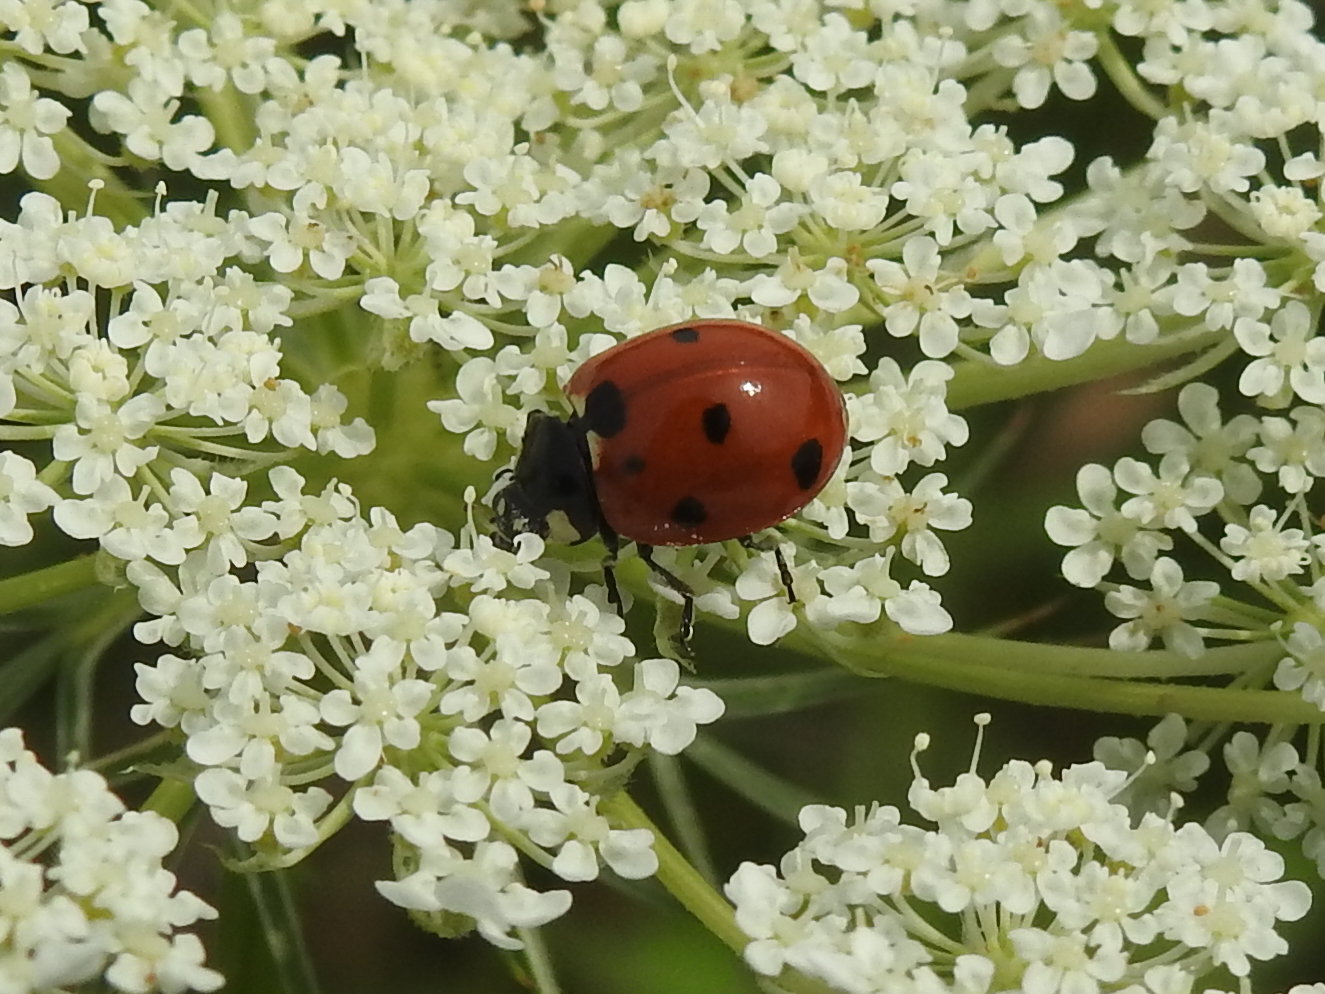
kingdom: Animalia
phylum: Arthropoda
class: Insecta
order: Coleoptera
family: Coccinellidae
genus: Coccinella
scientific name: Coccinella septempunctata
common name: Sevenspotted lady beetle
